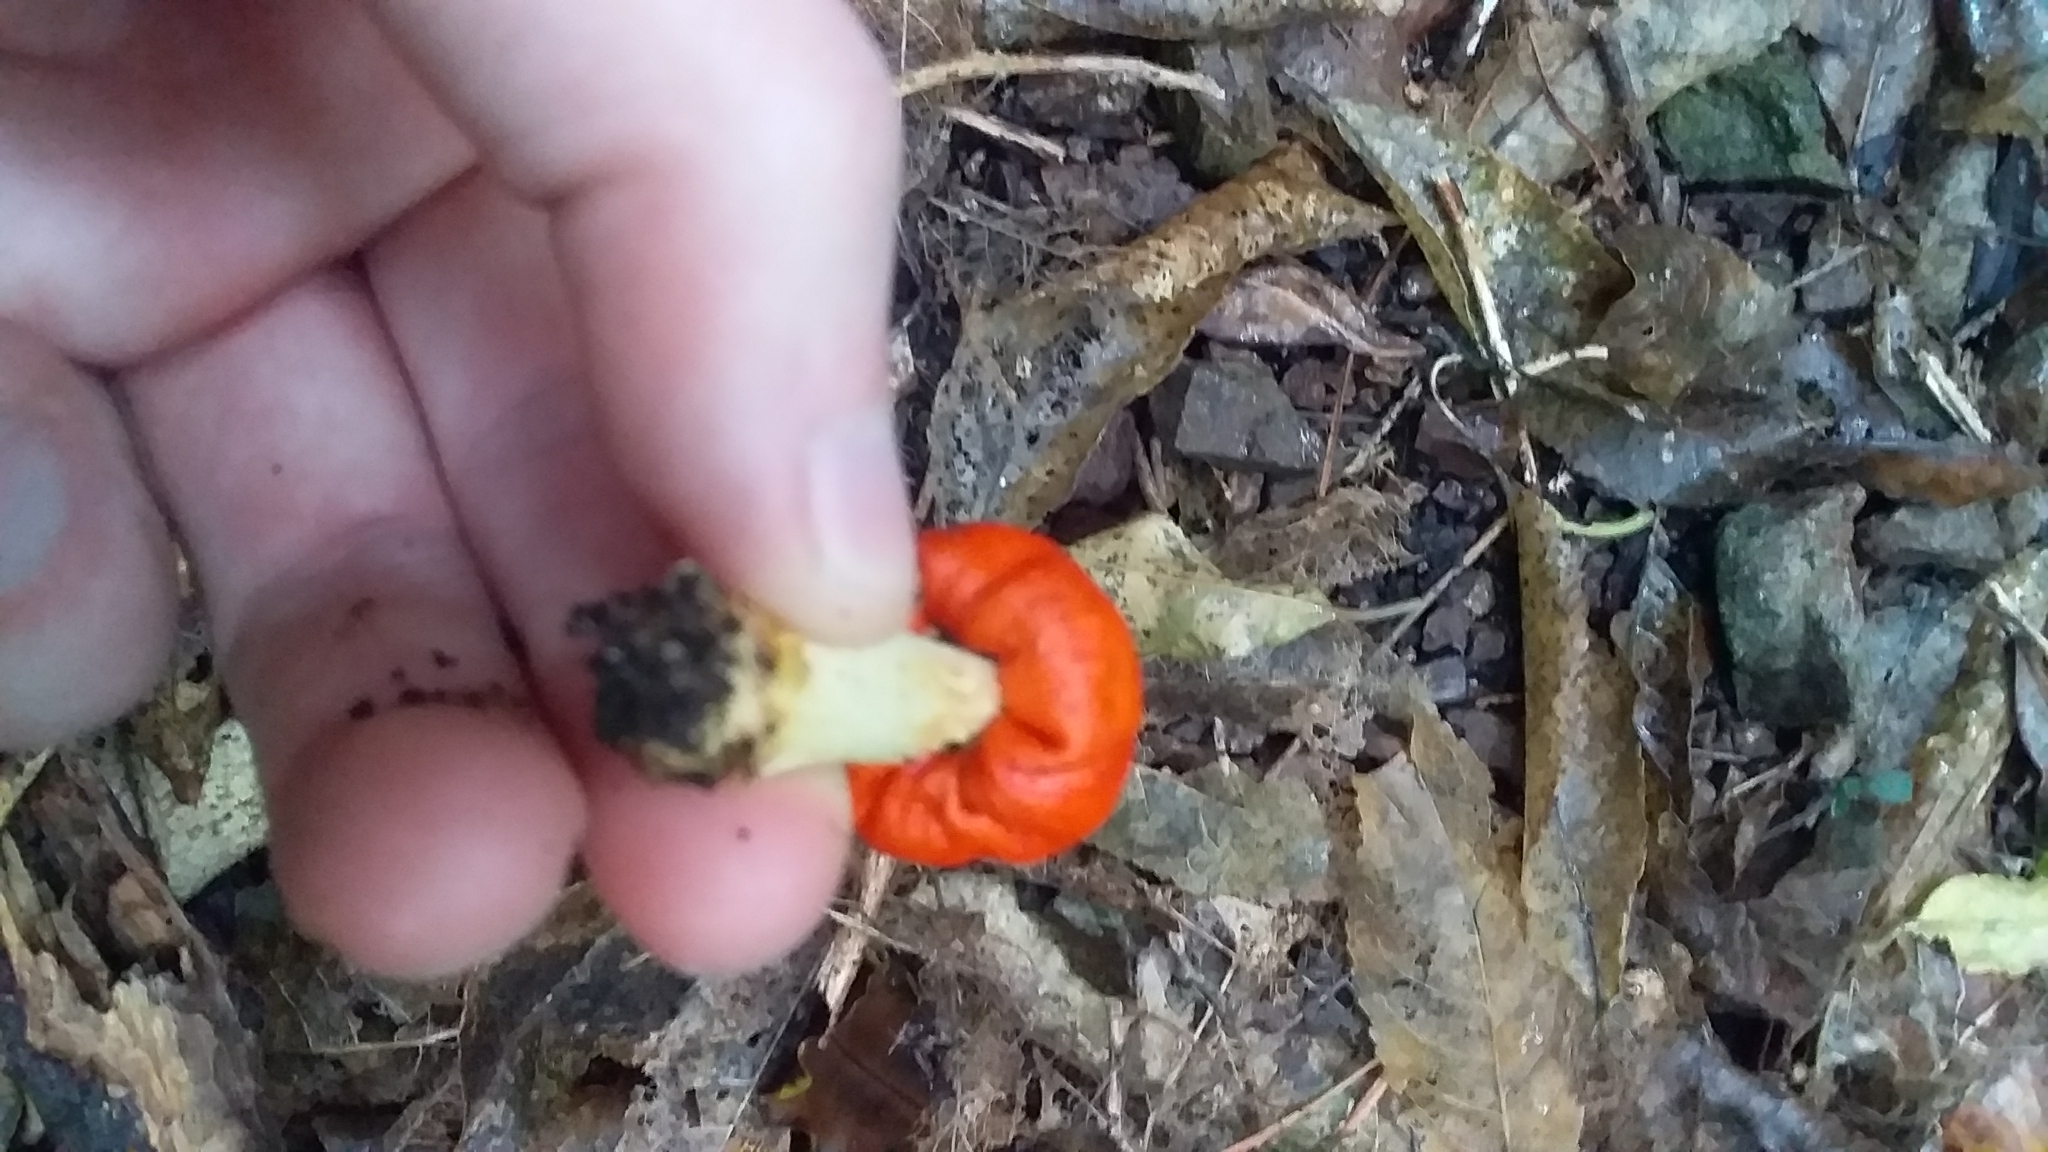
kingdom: Fungi
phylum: Basidiomycota
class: Agaricomycetes
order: Agaricales
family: Strophariaceae
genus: Leratiomyces
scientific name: Leratiomyces erythrocephalus
